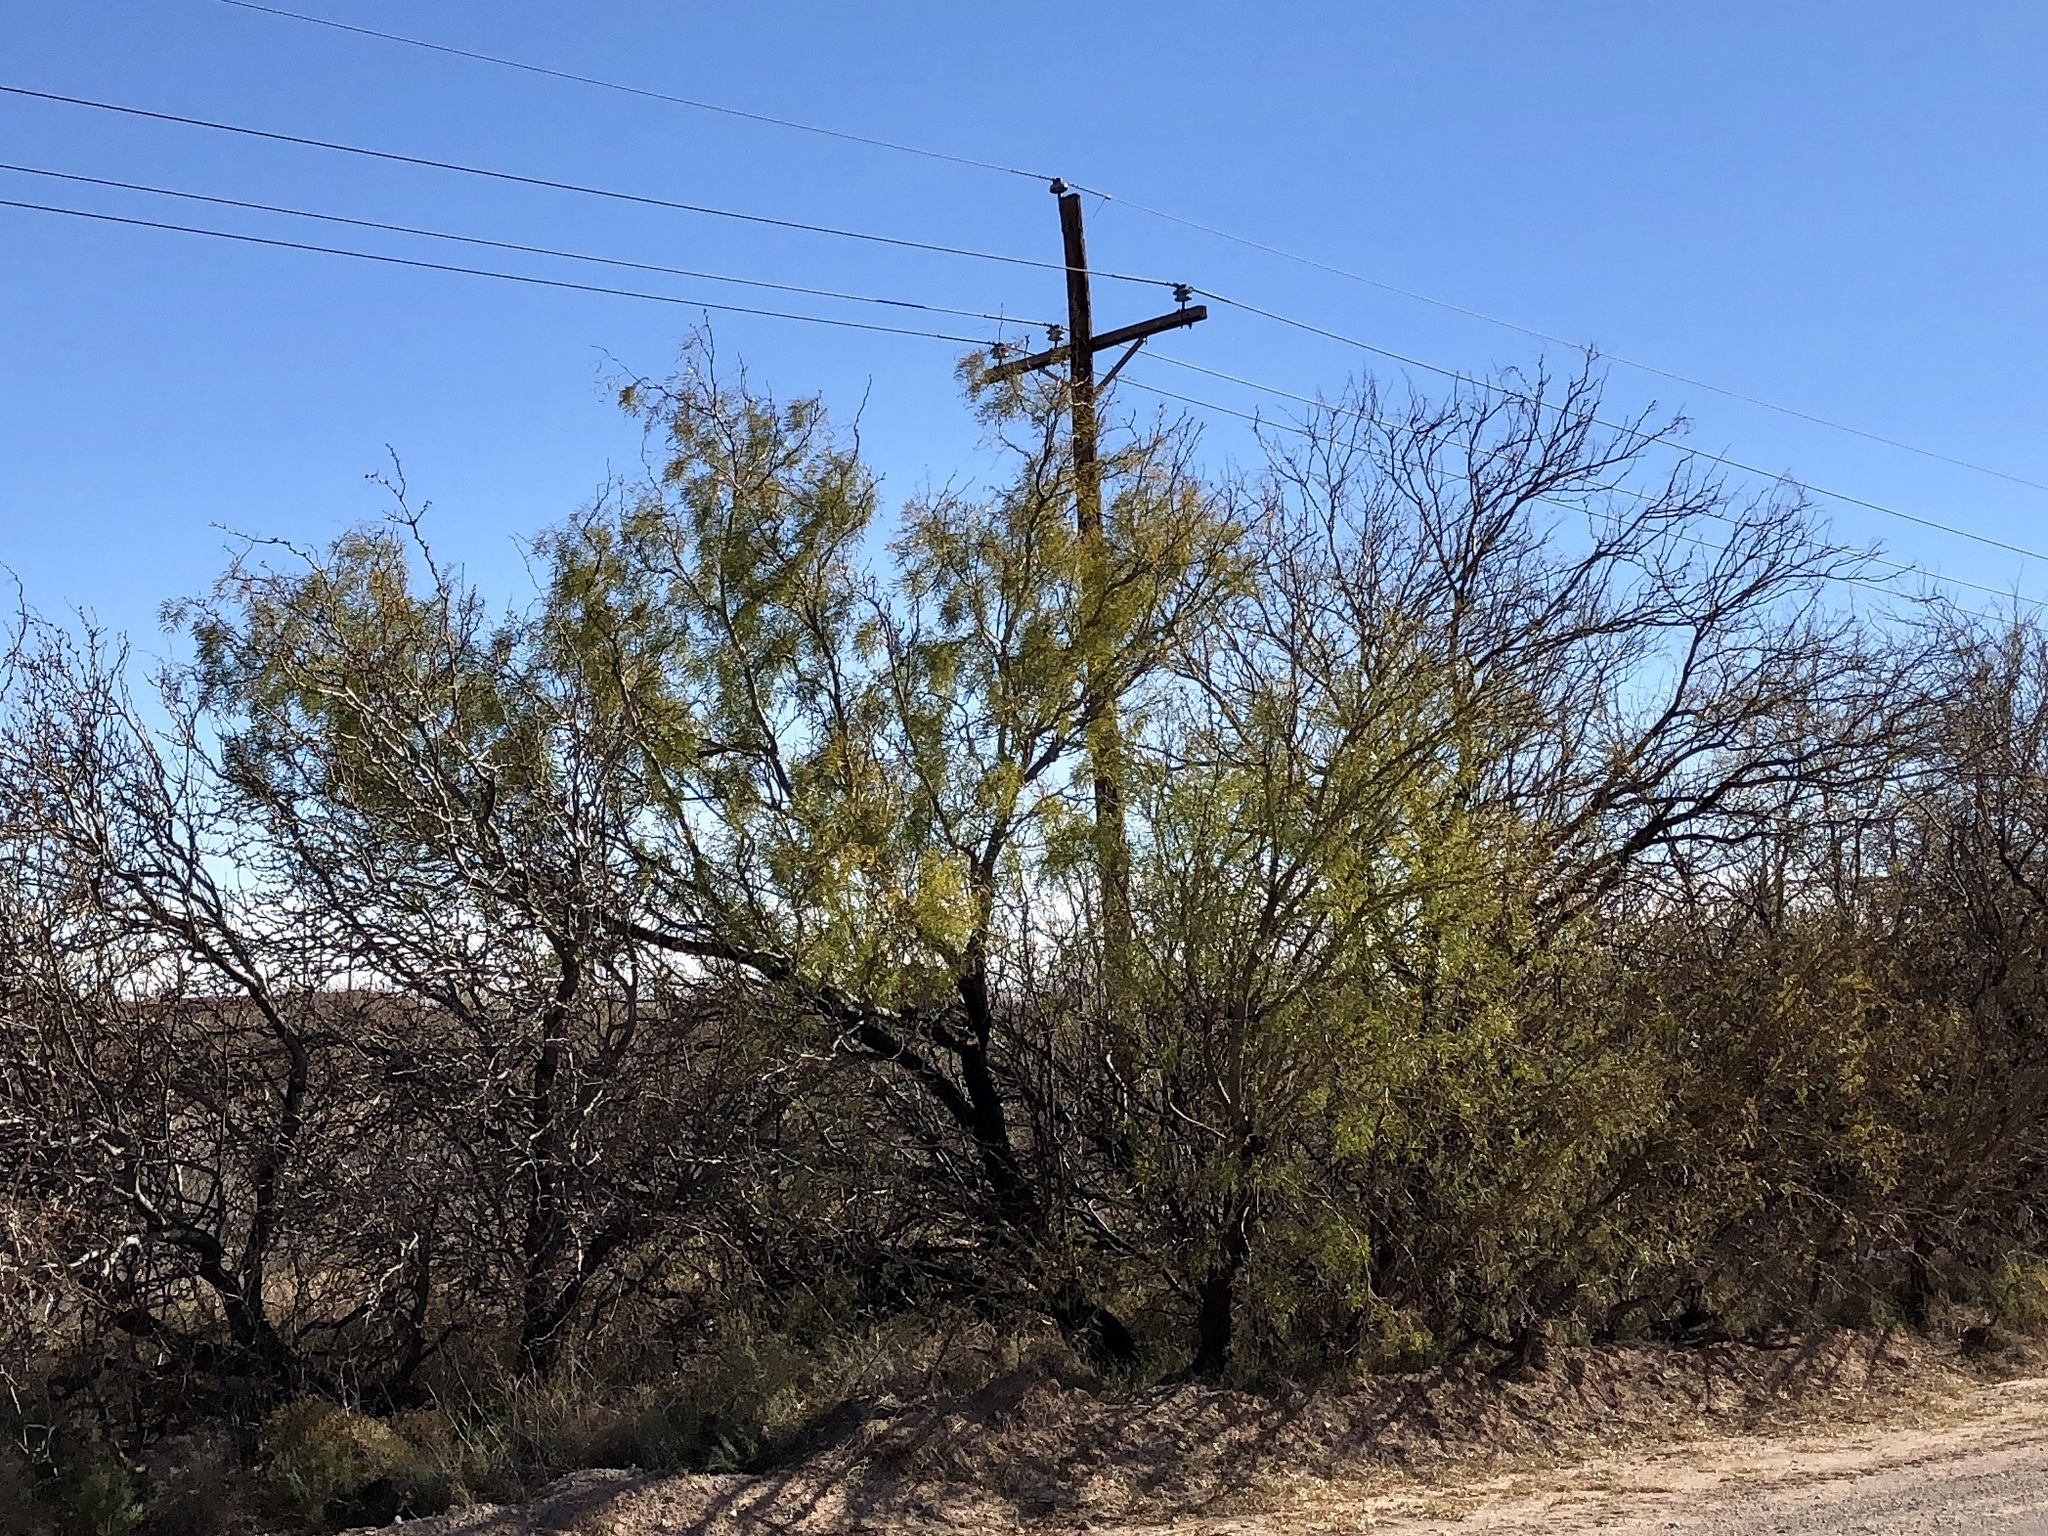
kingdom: Plantae
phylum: Tracheophyta
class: Magnoliopsida
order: Fabales
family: Fabaceae
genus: Prosopis
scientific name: Prosopis glandulosa
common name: Honey mesquite
